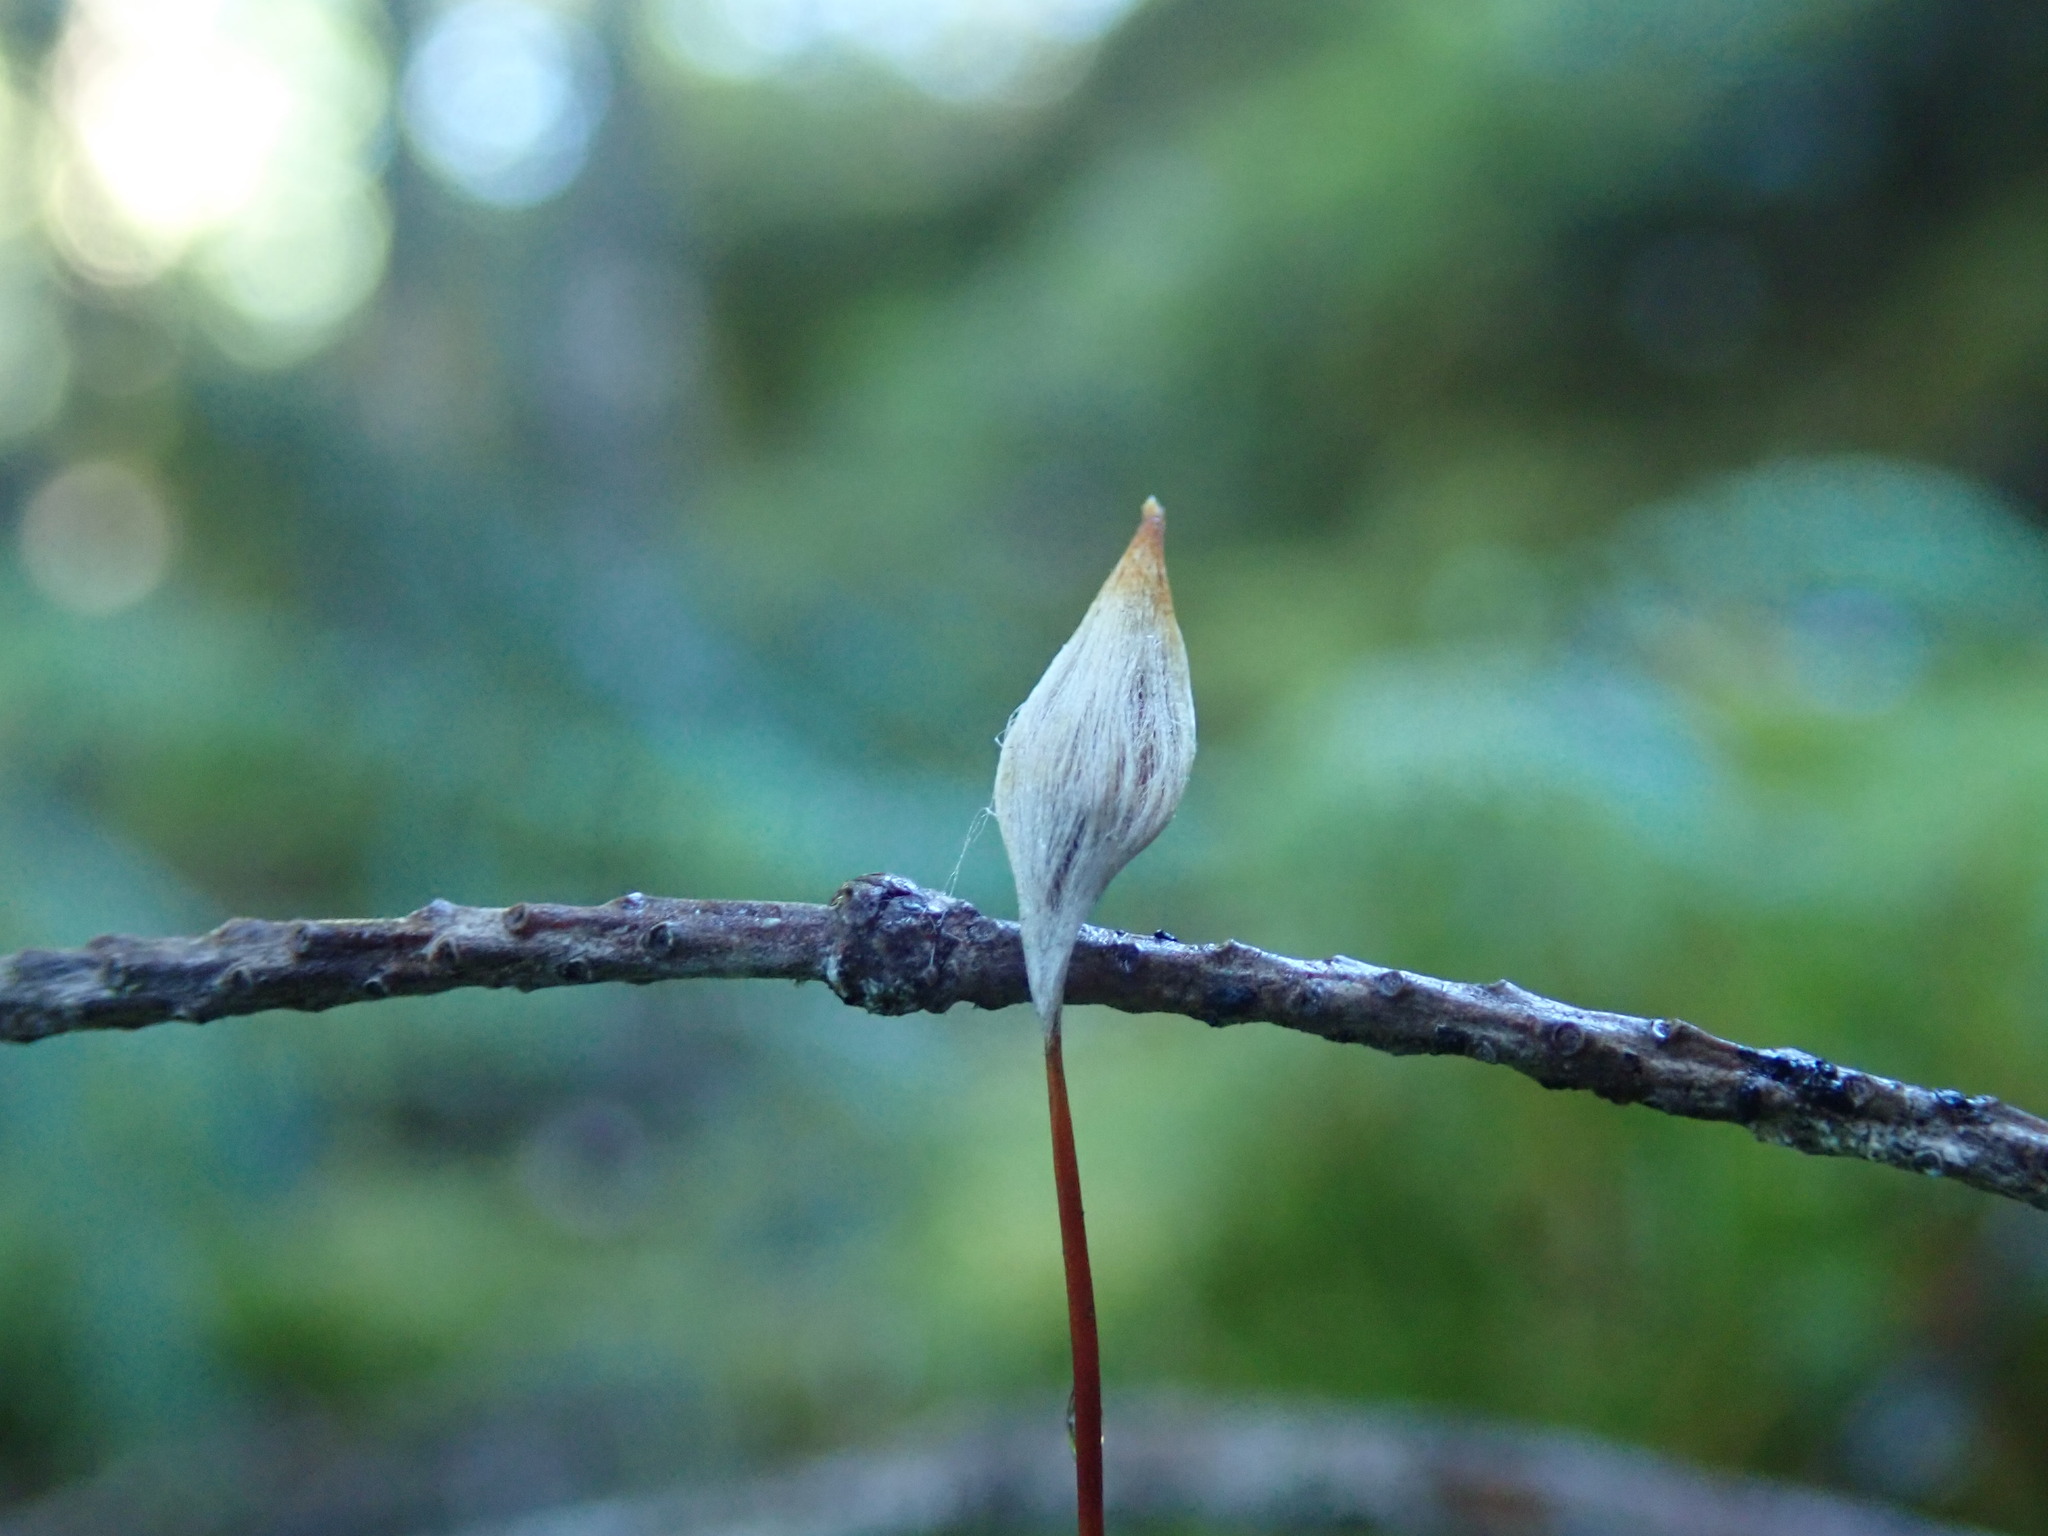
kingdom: Plantae
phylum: Bryophyta
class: Polytrichopsida
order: Polytrichales
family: Polytrichaceae
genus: Polytrichum
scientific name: Polytrichum juniperinum
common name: Juniper haircap moss
